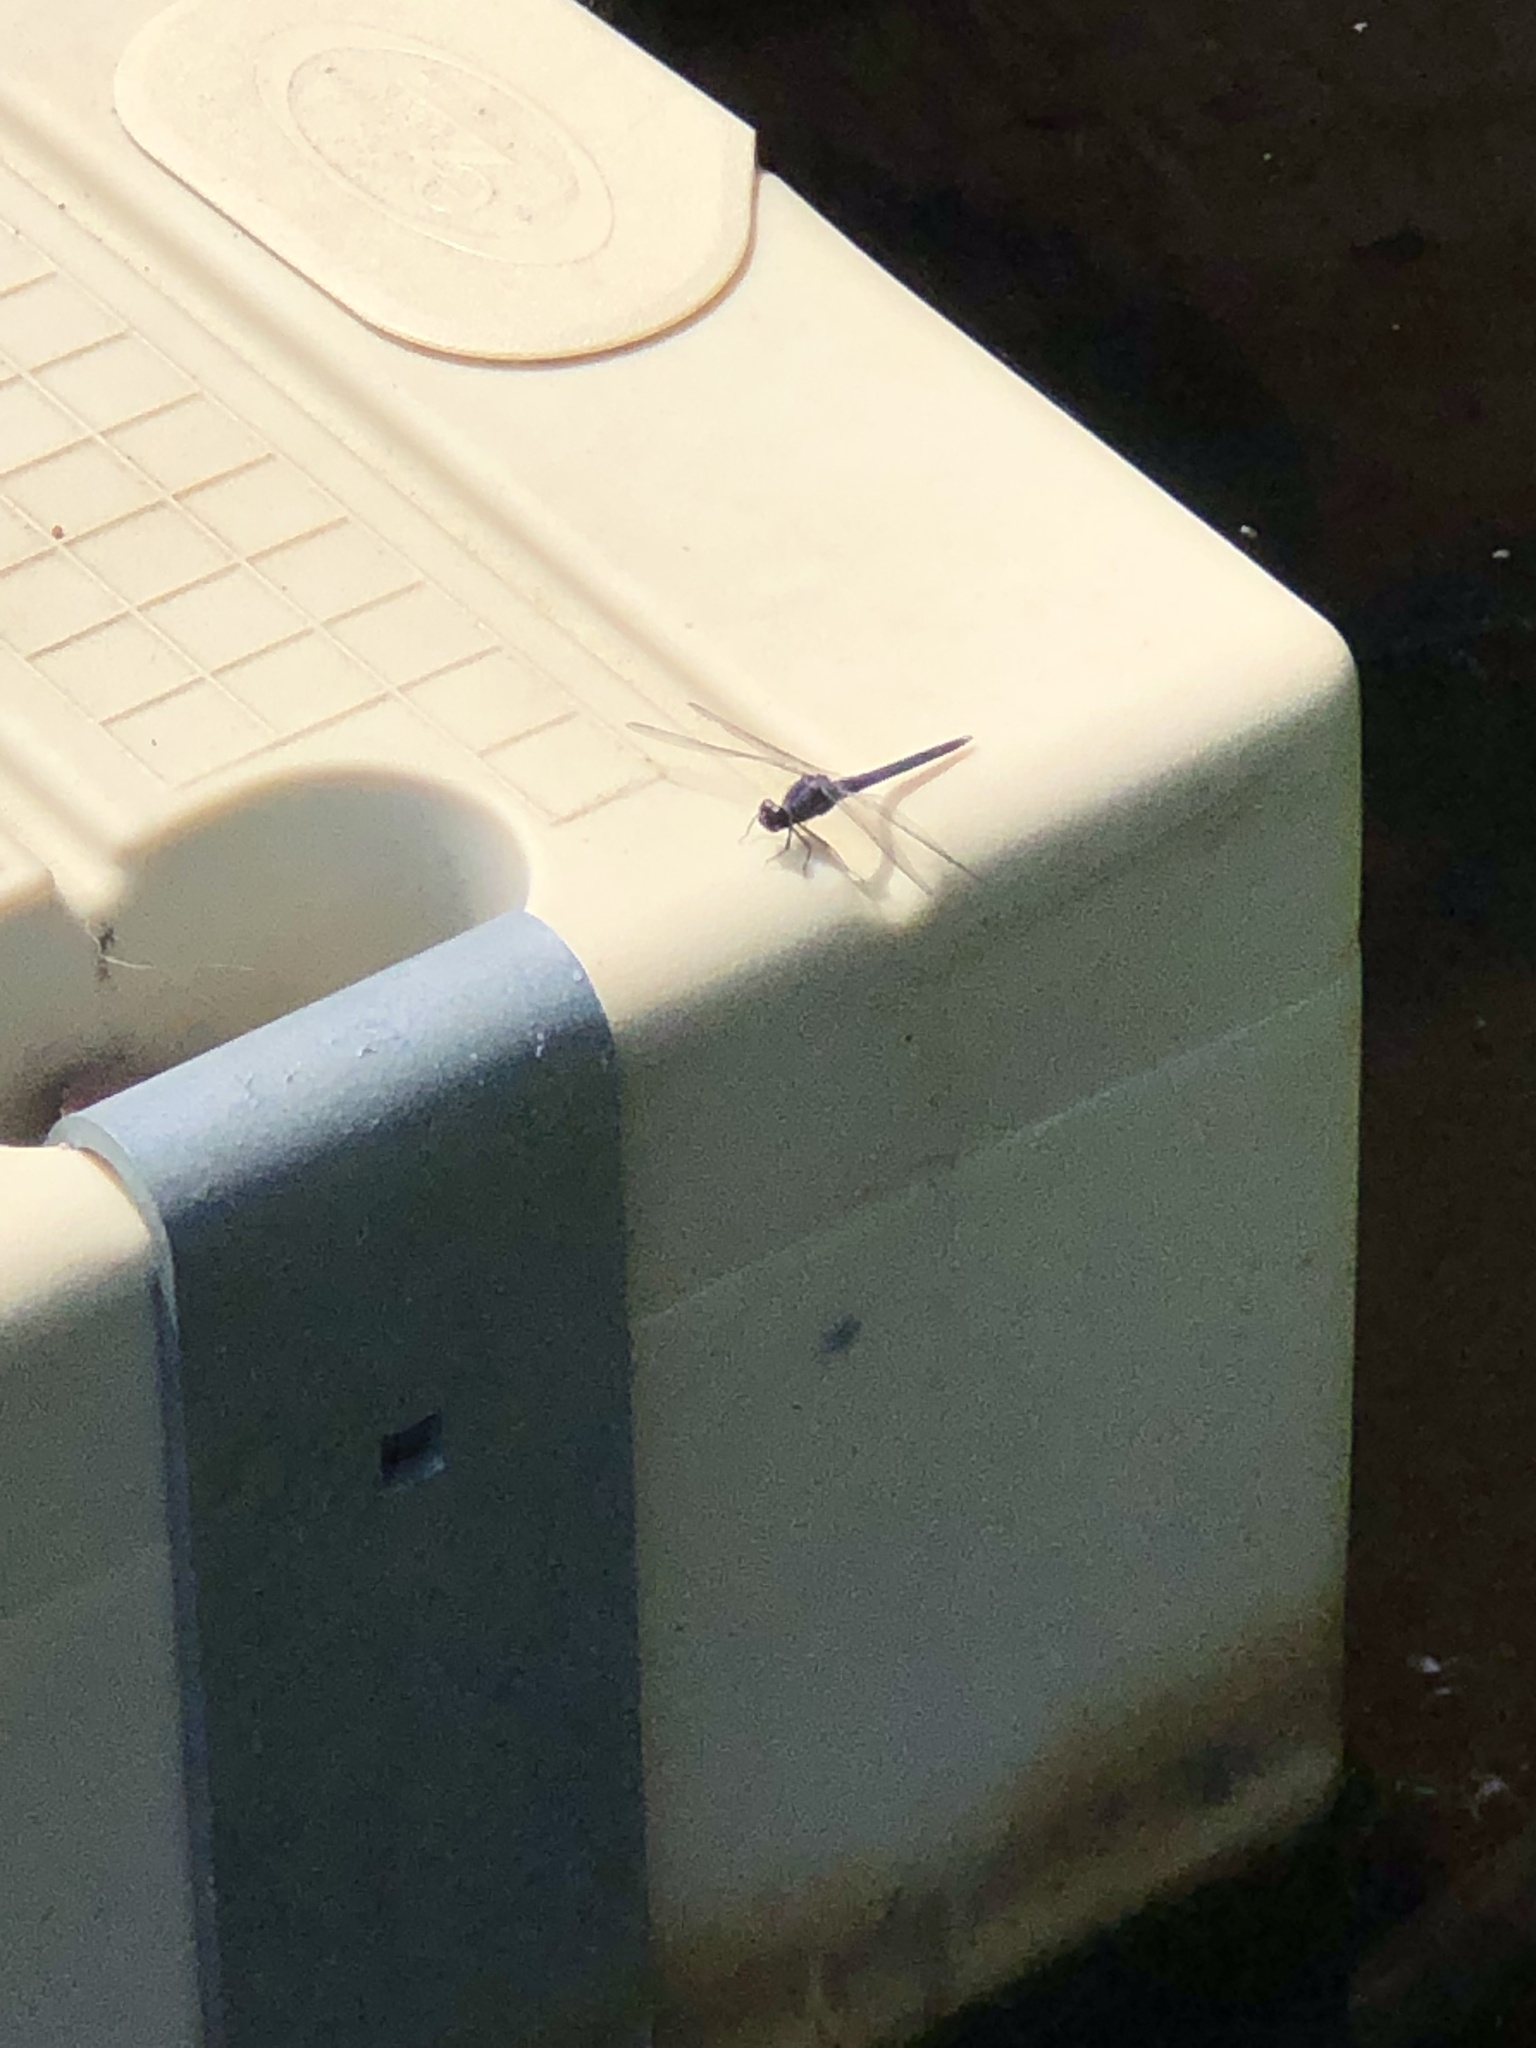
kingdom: Animalia
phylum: Arthropoda
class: Insecta
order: Odonata
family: Libellulidae
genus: Libellula
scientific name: Libellula incesta
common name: Slaty skimmer
